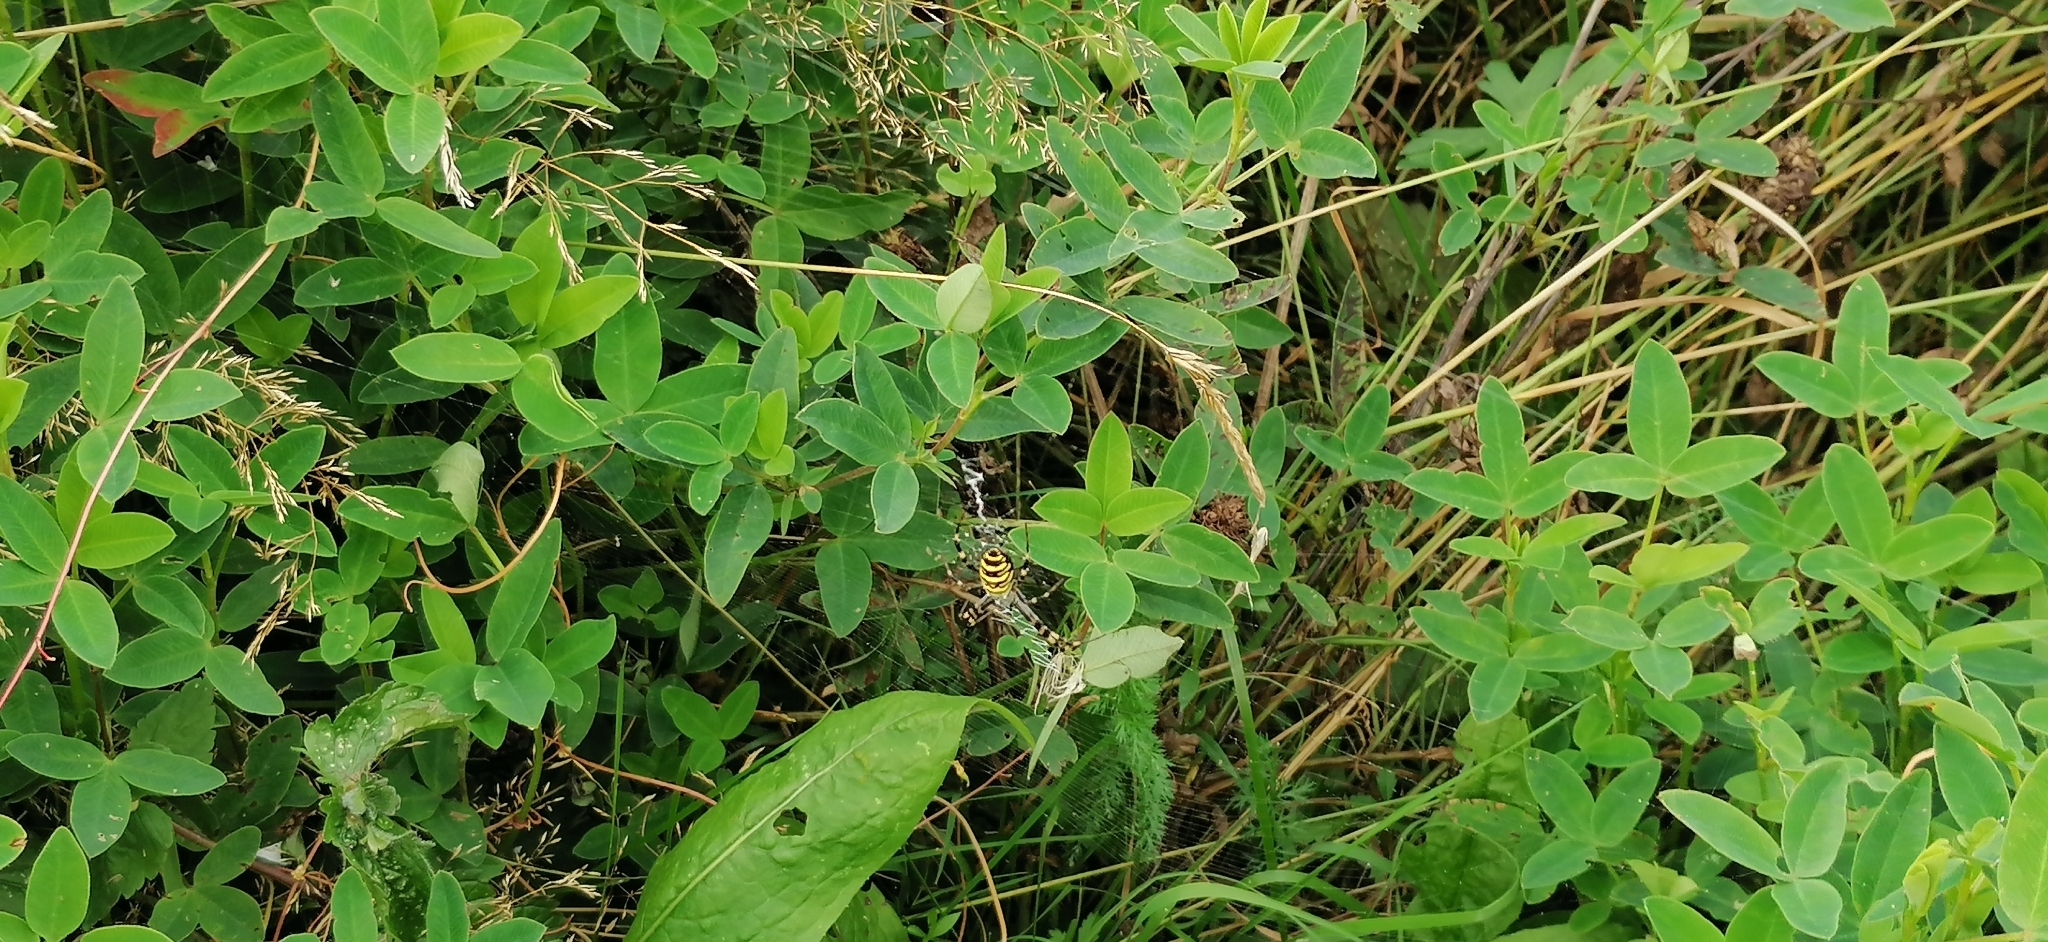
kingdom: Animalia
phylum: Arthropoda
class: Arachnida
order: Araneae
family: Araneidae
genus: Argiope
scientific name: Argiope bruennichi
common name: Wasp spider
